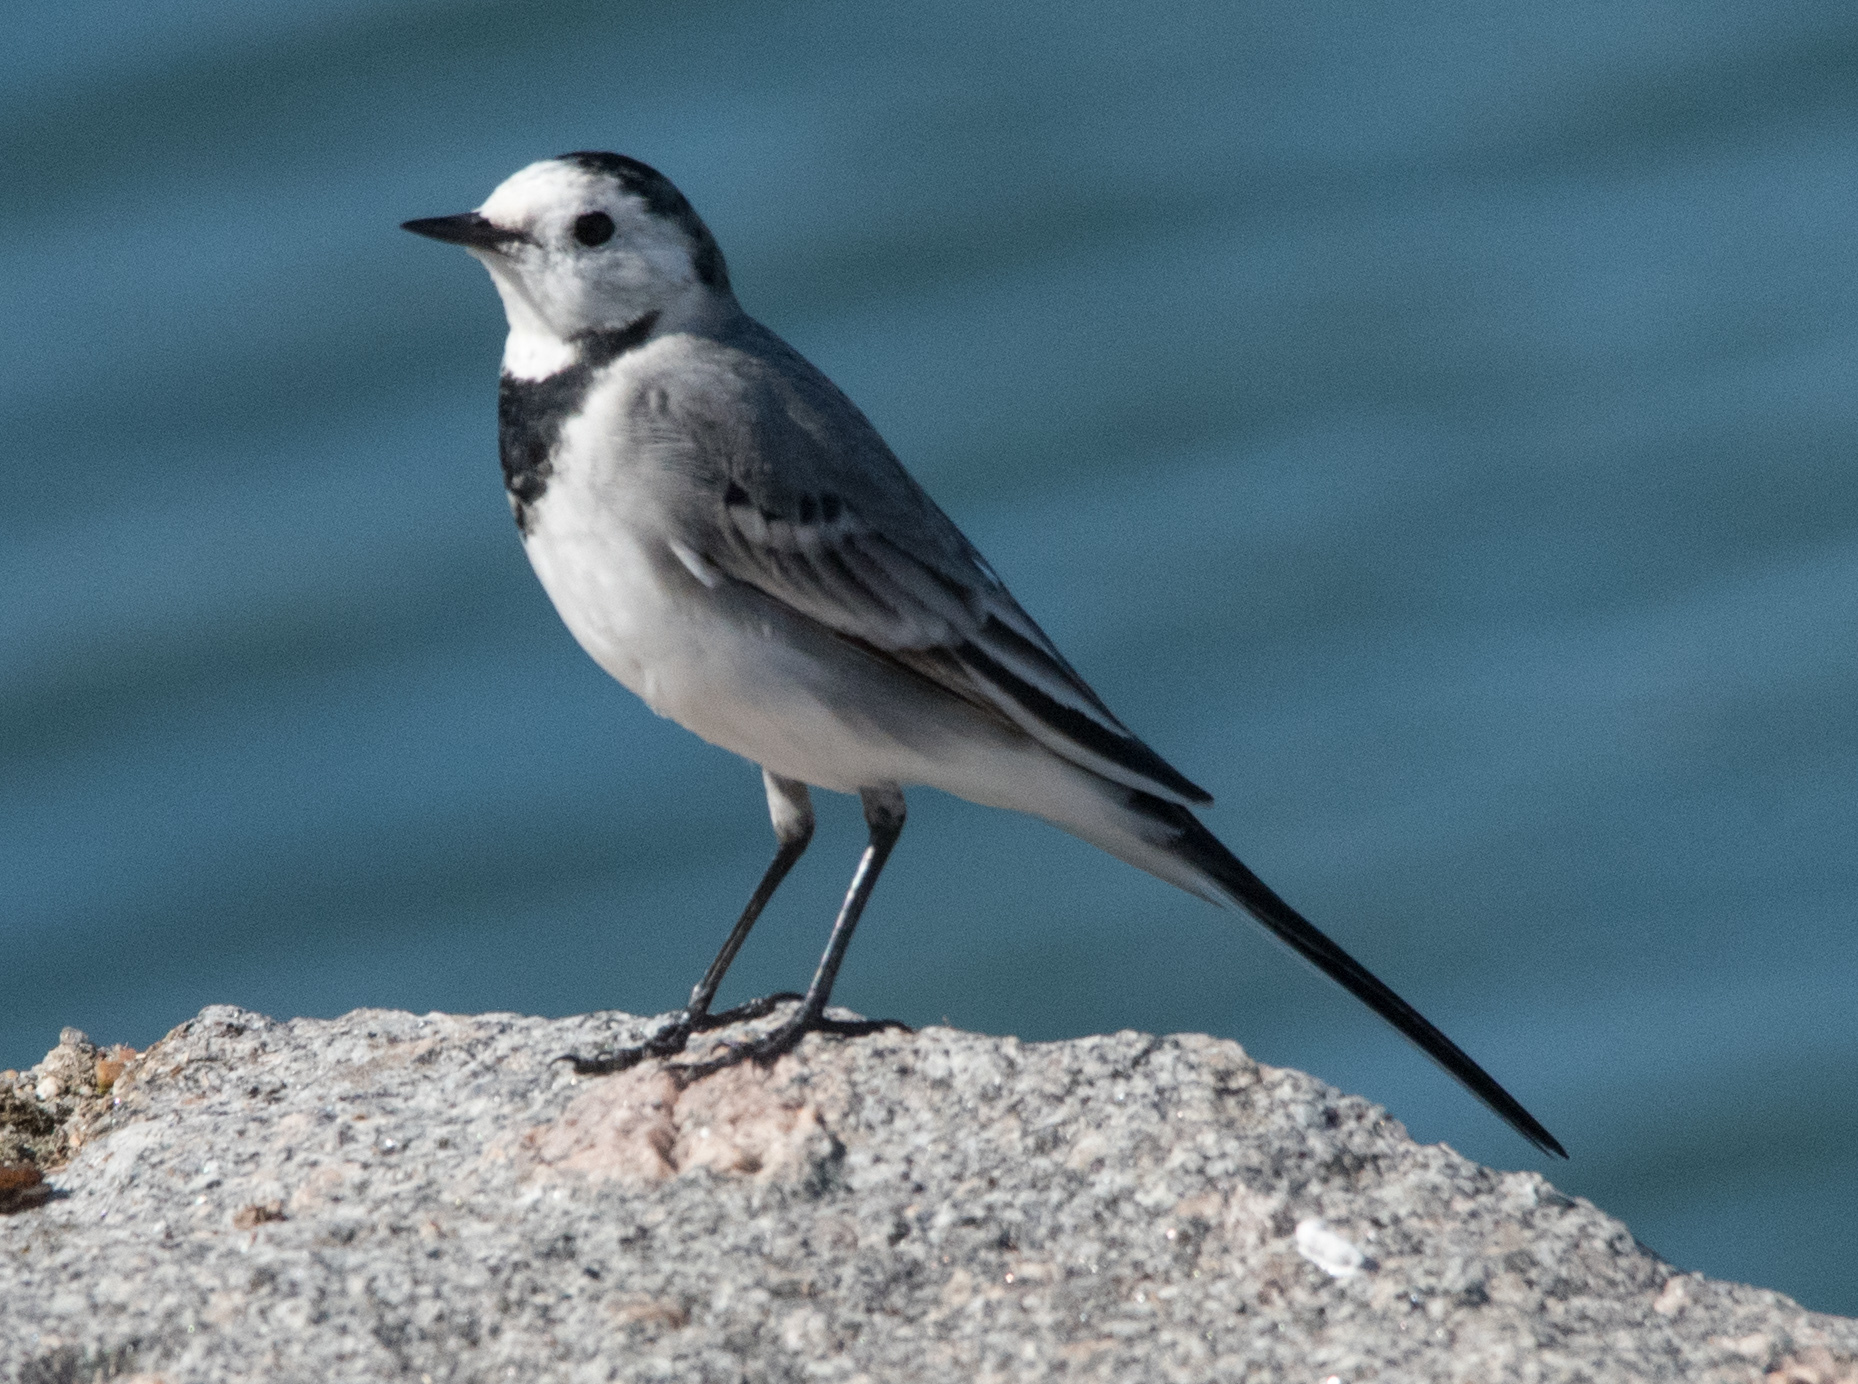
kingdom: Animalia
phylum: Chordata
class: Aves
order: Passeriformes
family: Motacillidae
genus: Motacilla
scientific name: Motacilla alba
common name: White wagtail
